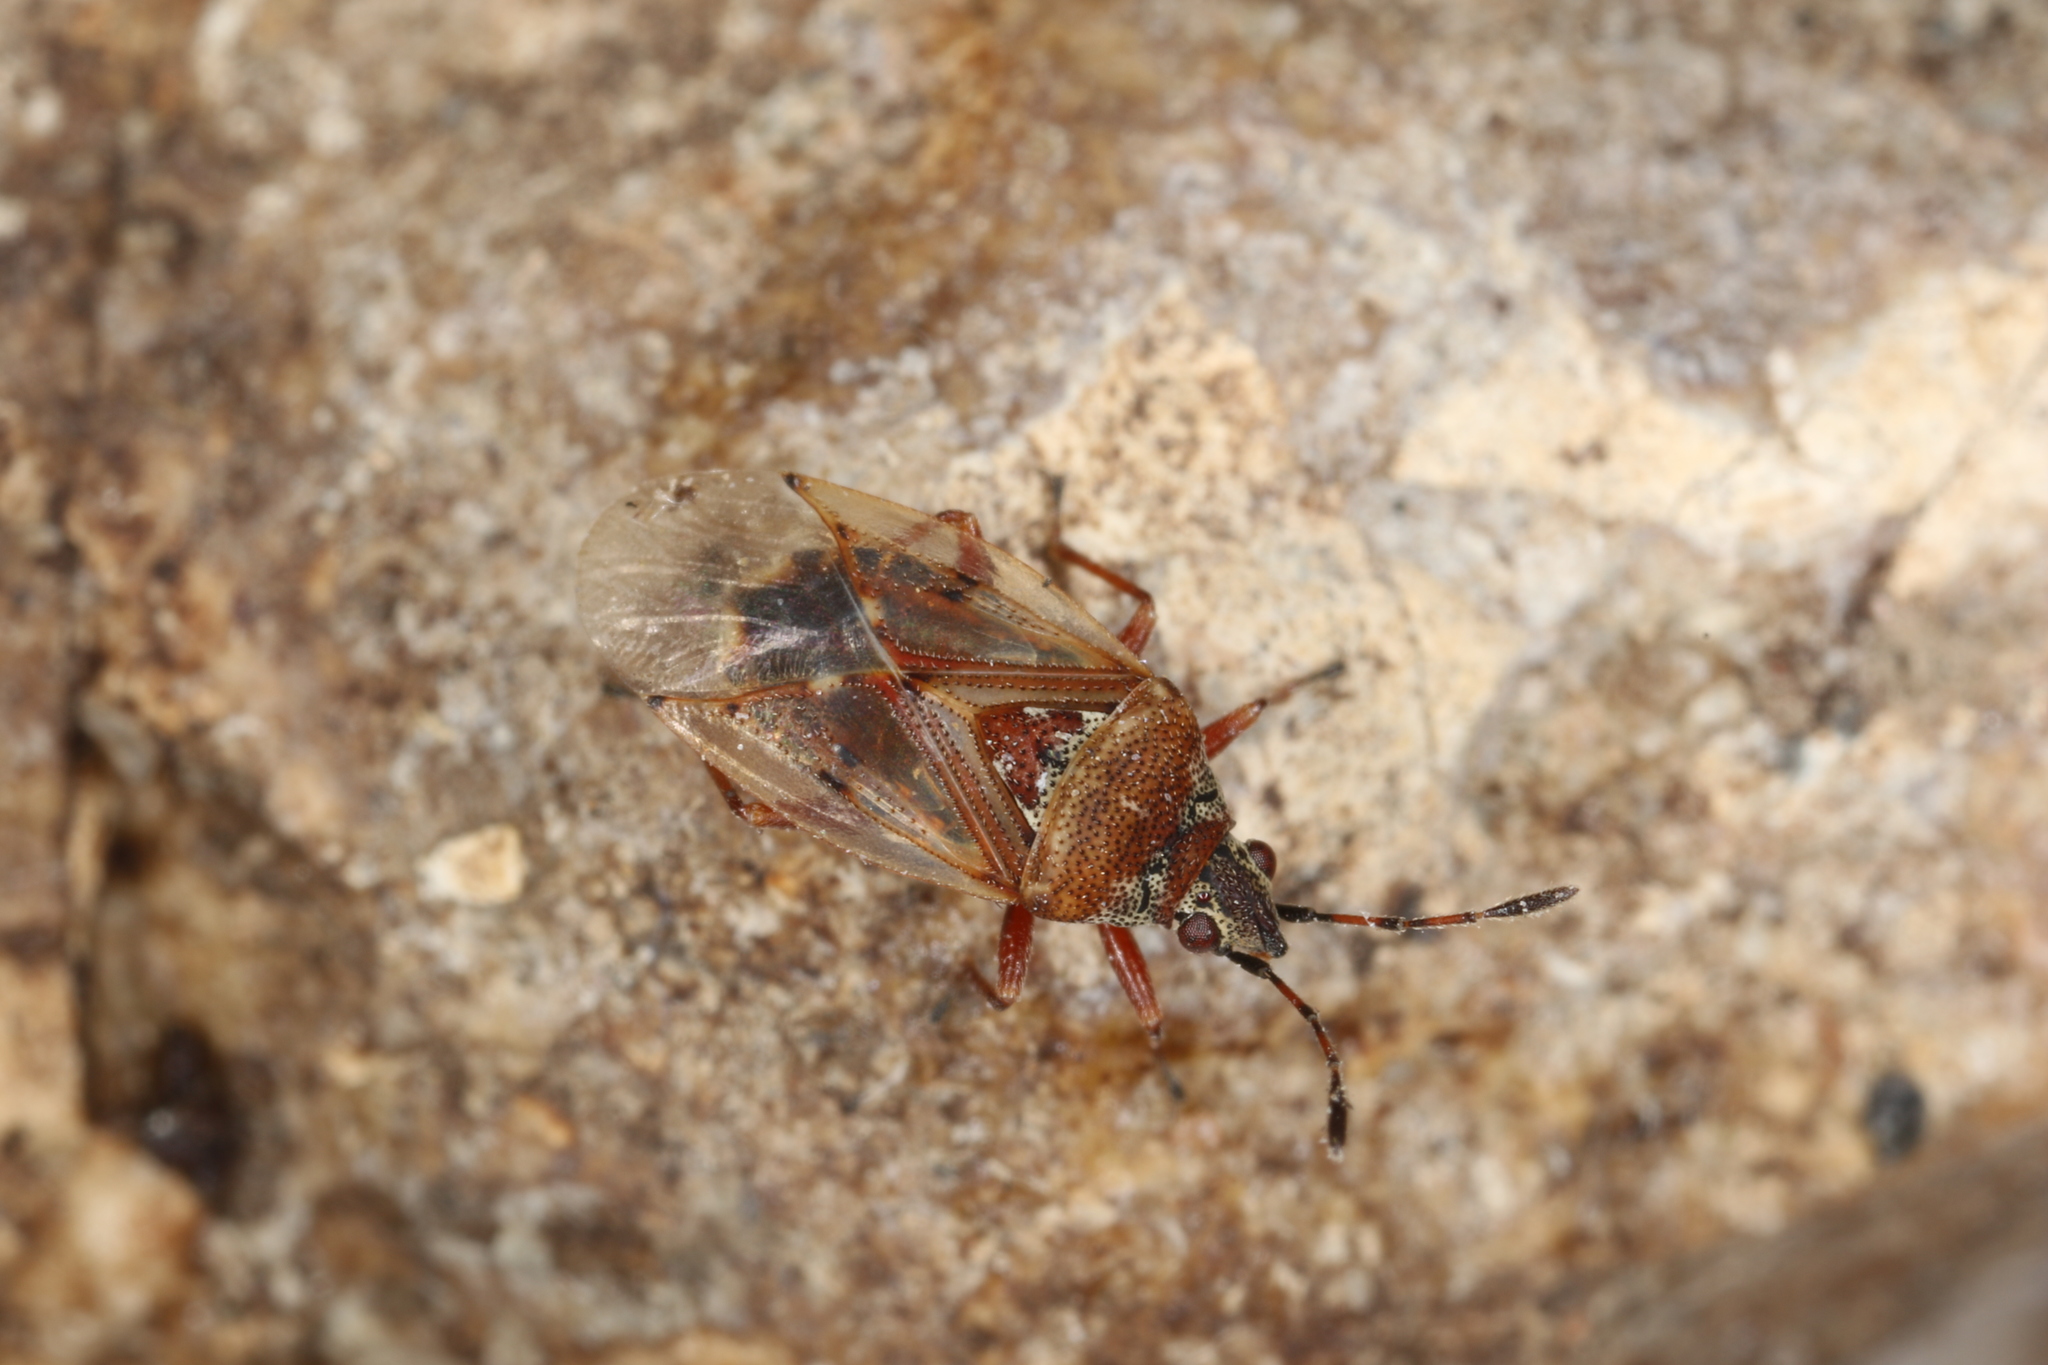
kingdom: Animalia
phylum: Arthropoda
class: Insecta
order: Hemiptera
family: Lygaeidae
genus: Kleidocerys
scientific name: Kleidocerys resedae
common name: Birch catkin bug
